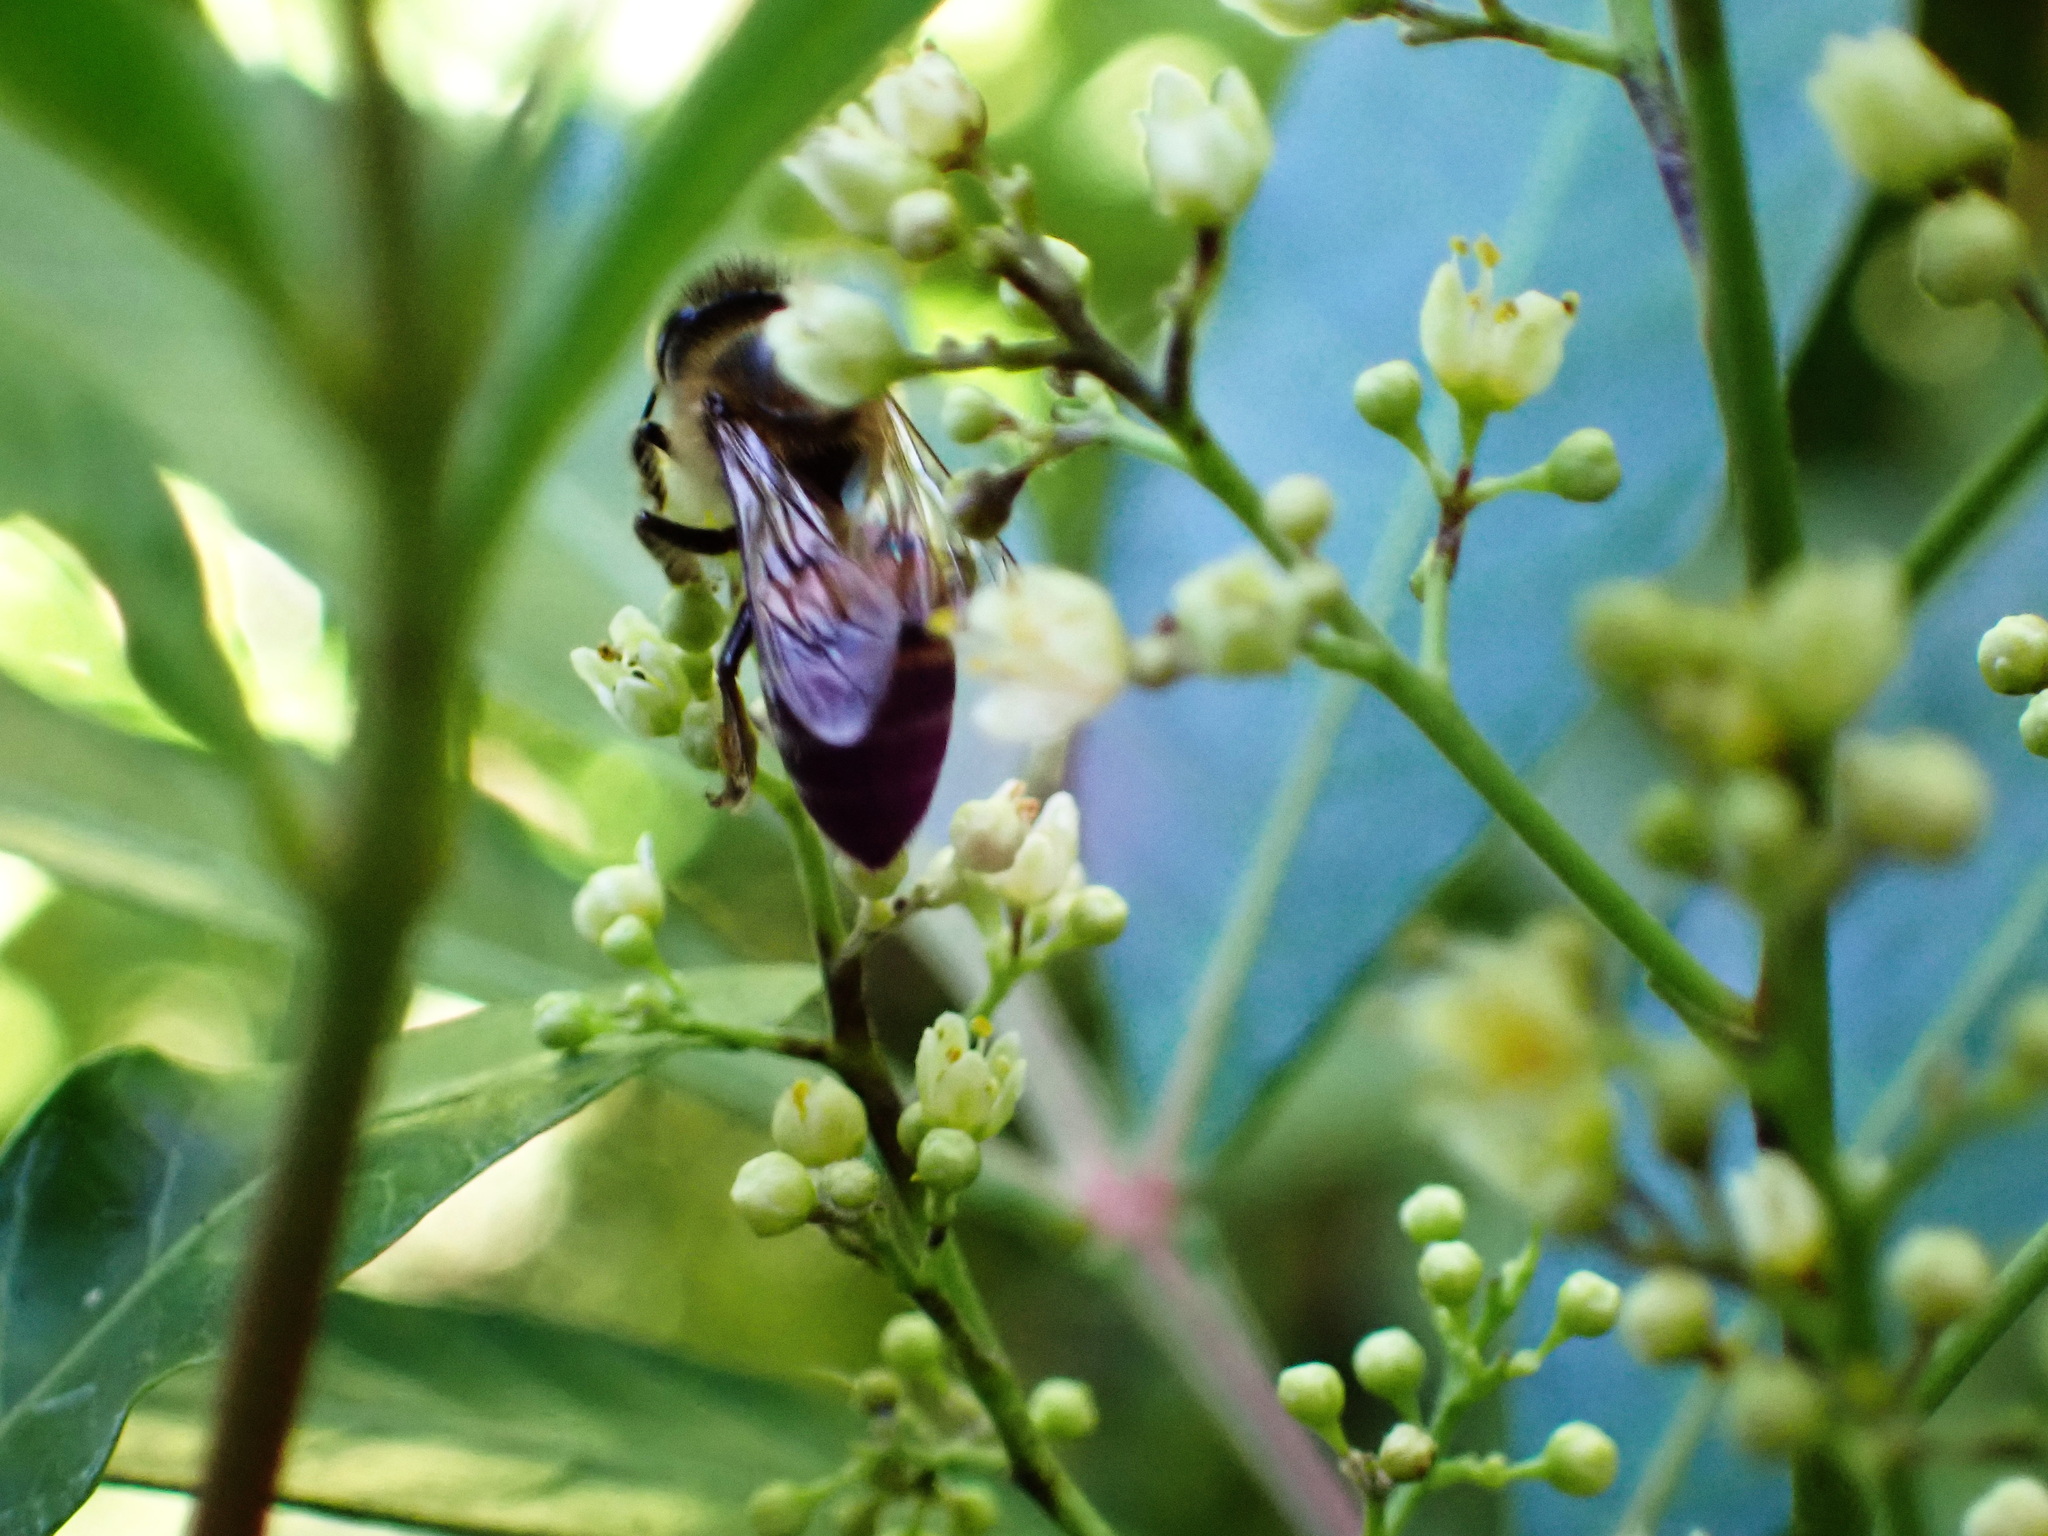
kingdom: Animalia
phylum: Arthropoda
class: Insecta
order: Hymenoptera
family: Apidae
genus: Apis
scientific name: Apis mellifera
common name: Honey bee
